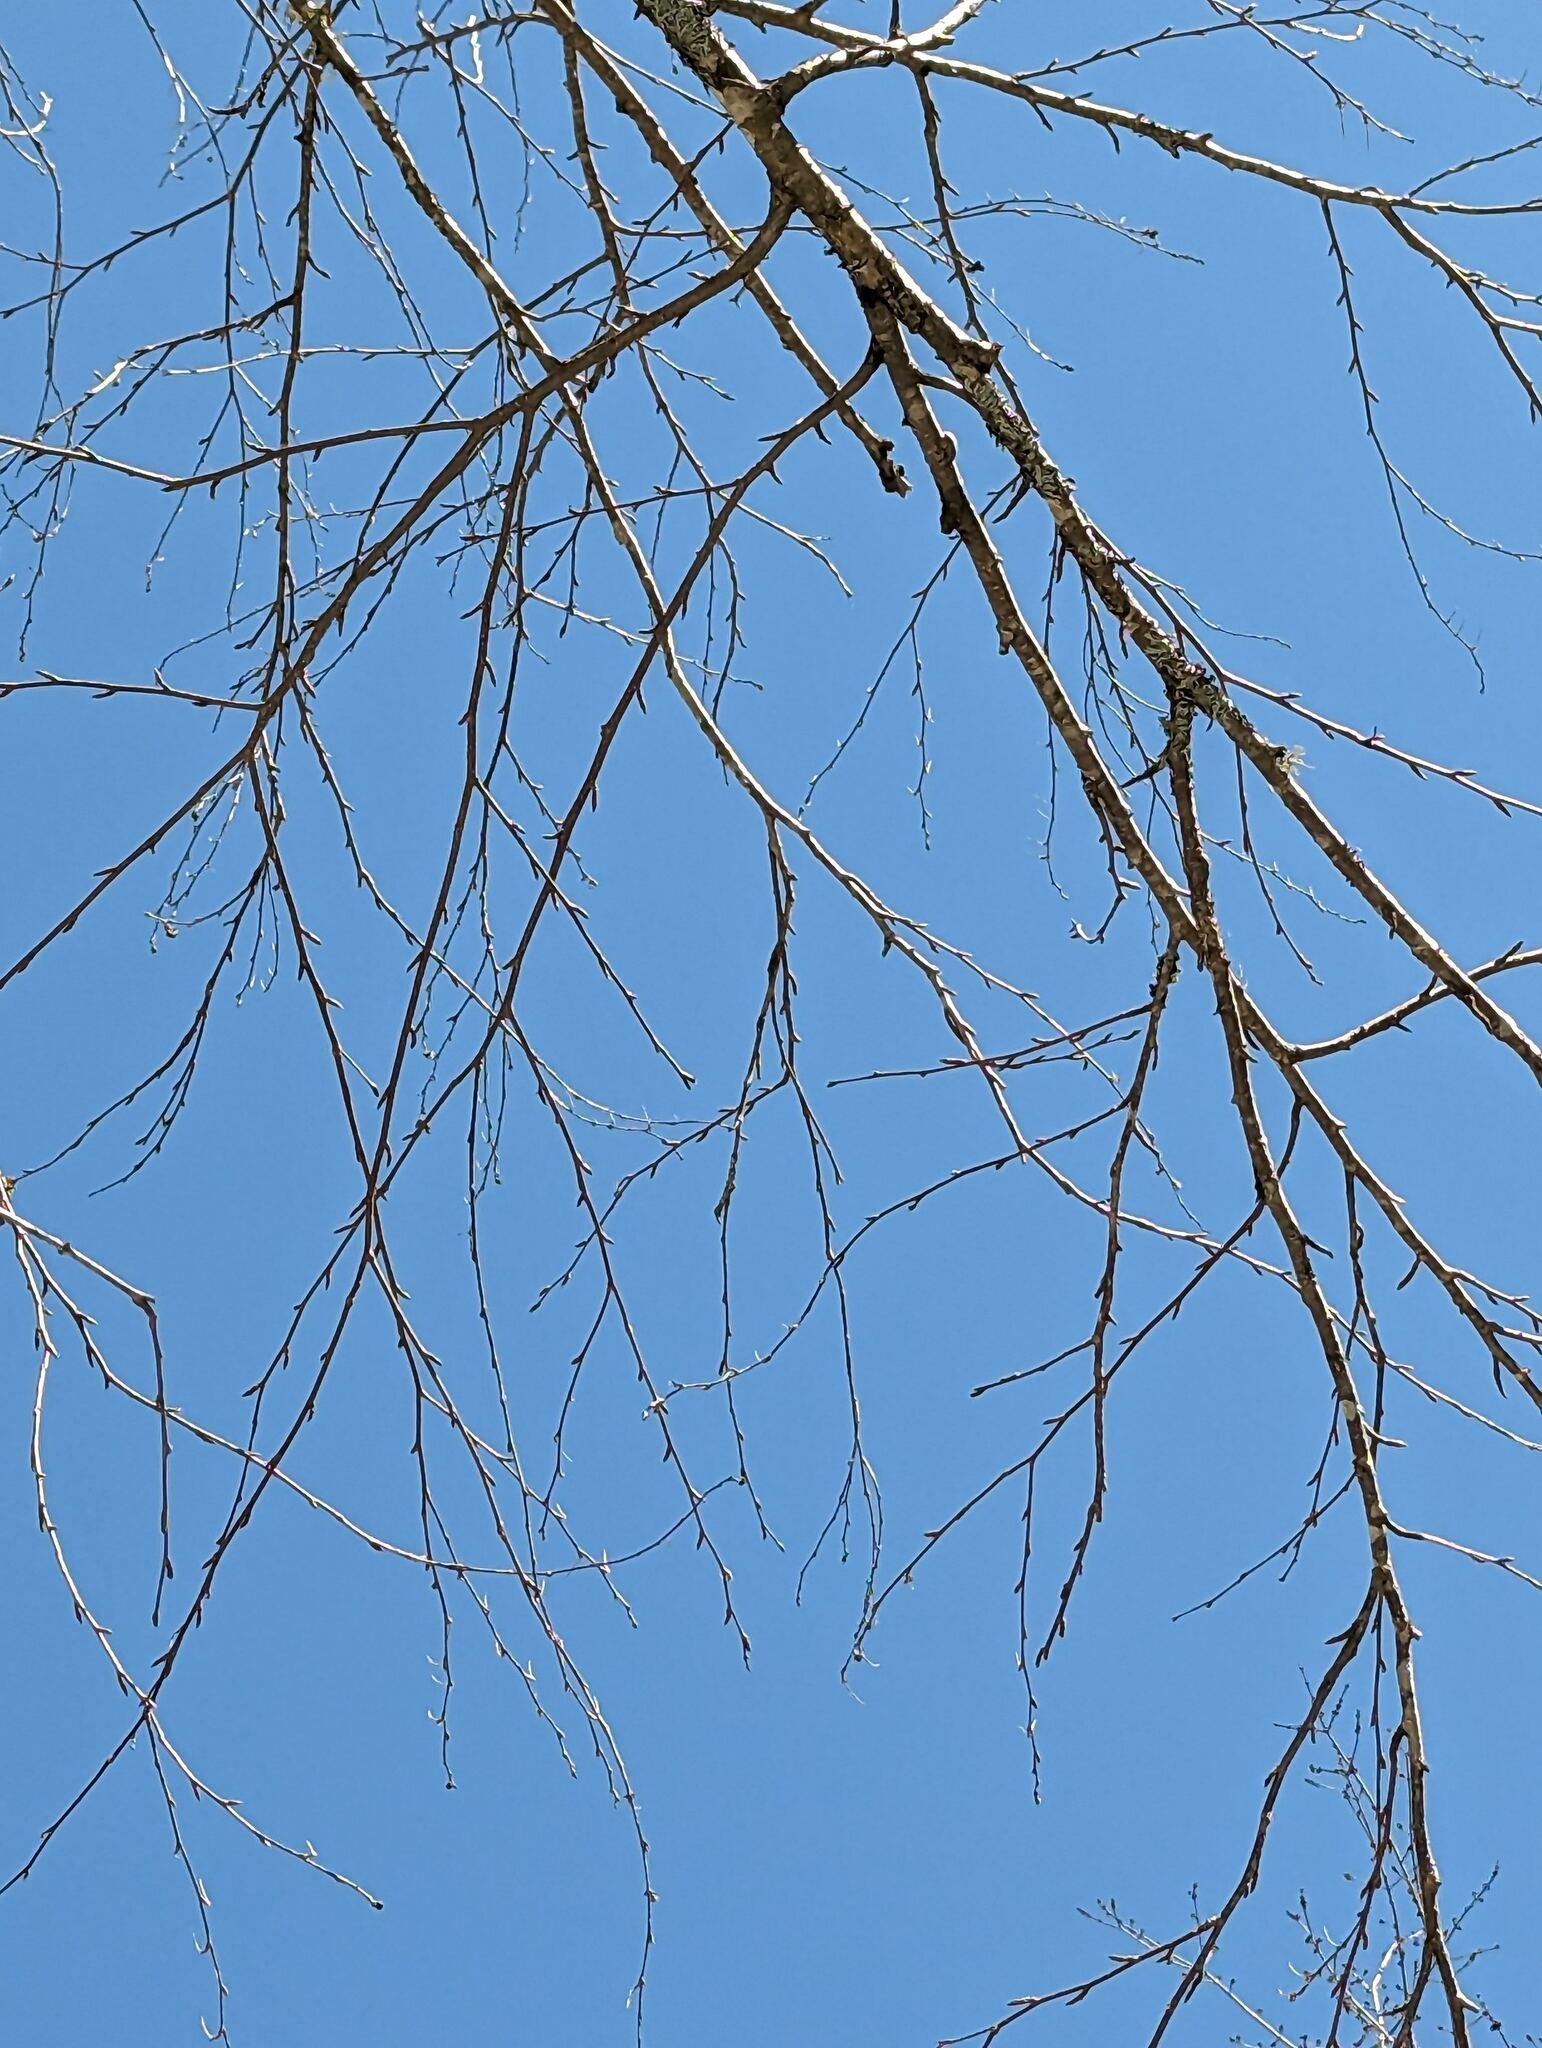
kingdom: Plantae
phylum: Tracheophyta
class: Magnoliopsida
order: Fagales
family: Betulaceae
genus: Betula
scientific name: Betula alleghaniensis
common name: Yellow birch
